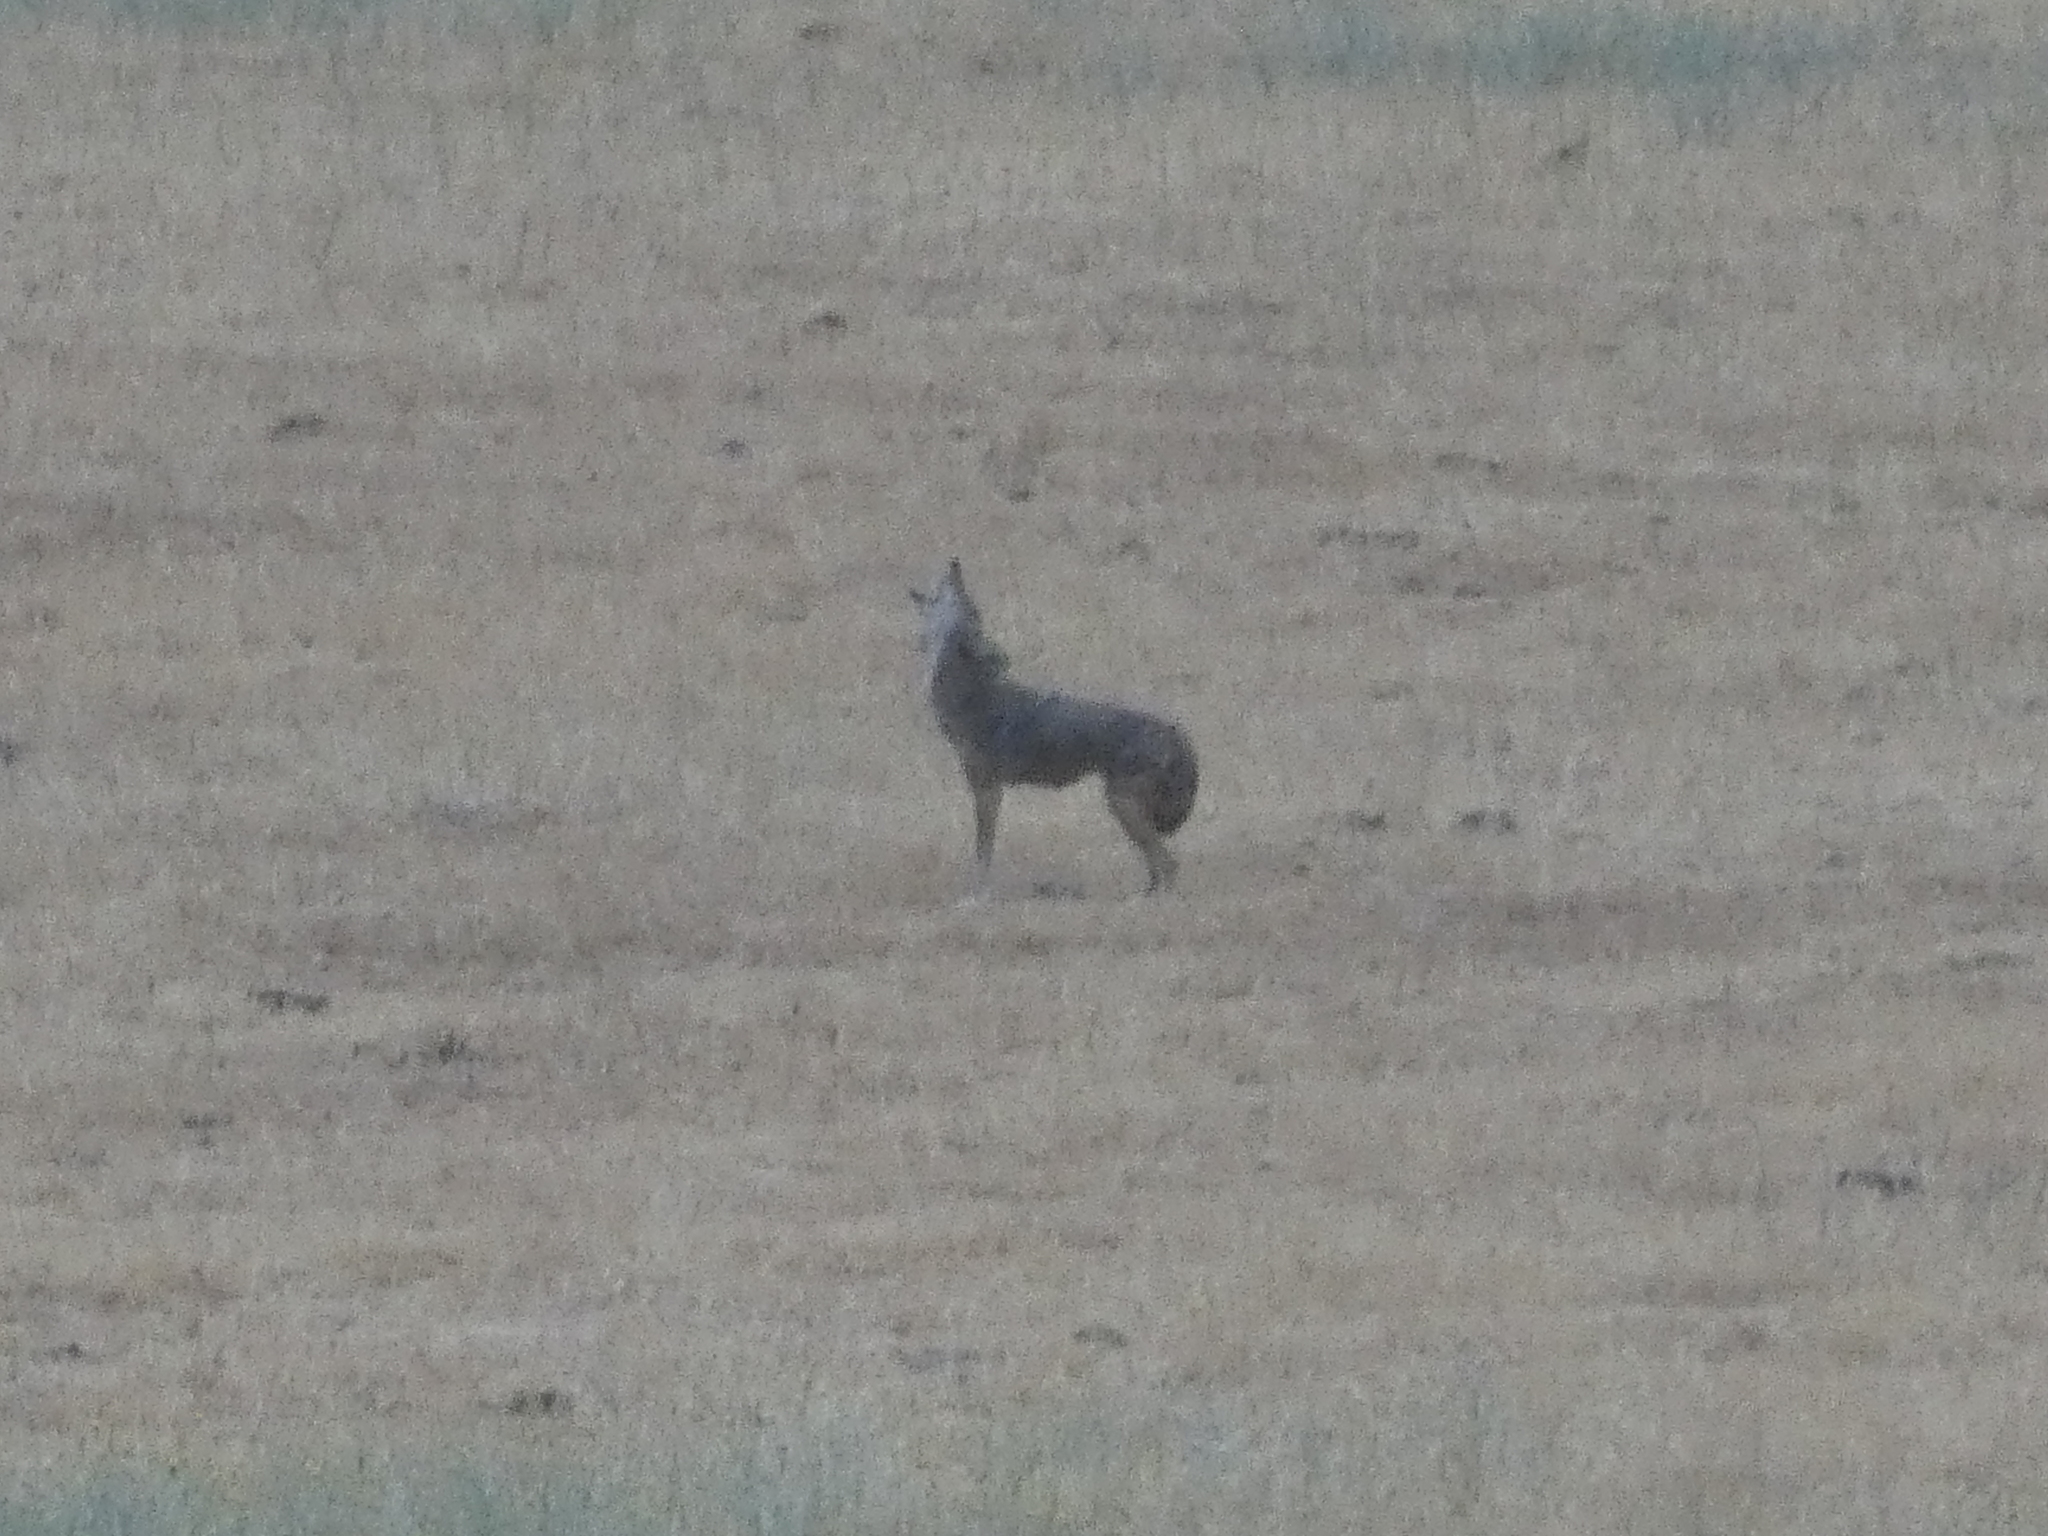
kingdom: Animalia
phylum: Chordata
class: Mammalia
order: Carnivora
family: Canidae
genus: Canis
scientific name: Canis latrans
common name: Coyote
